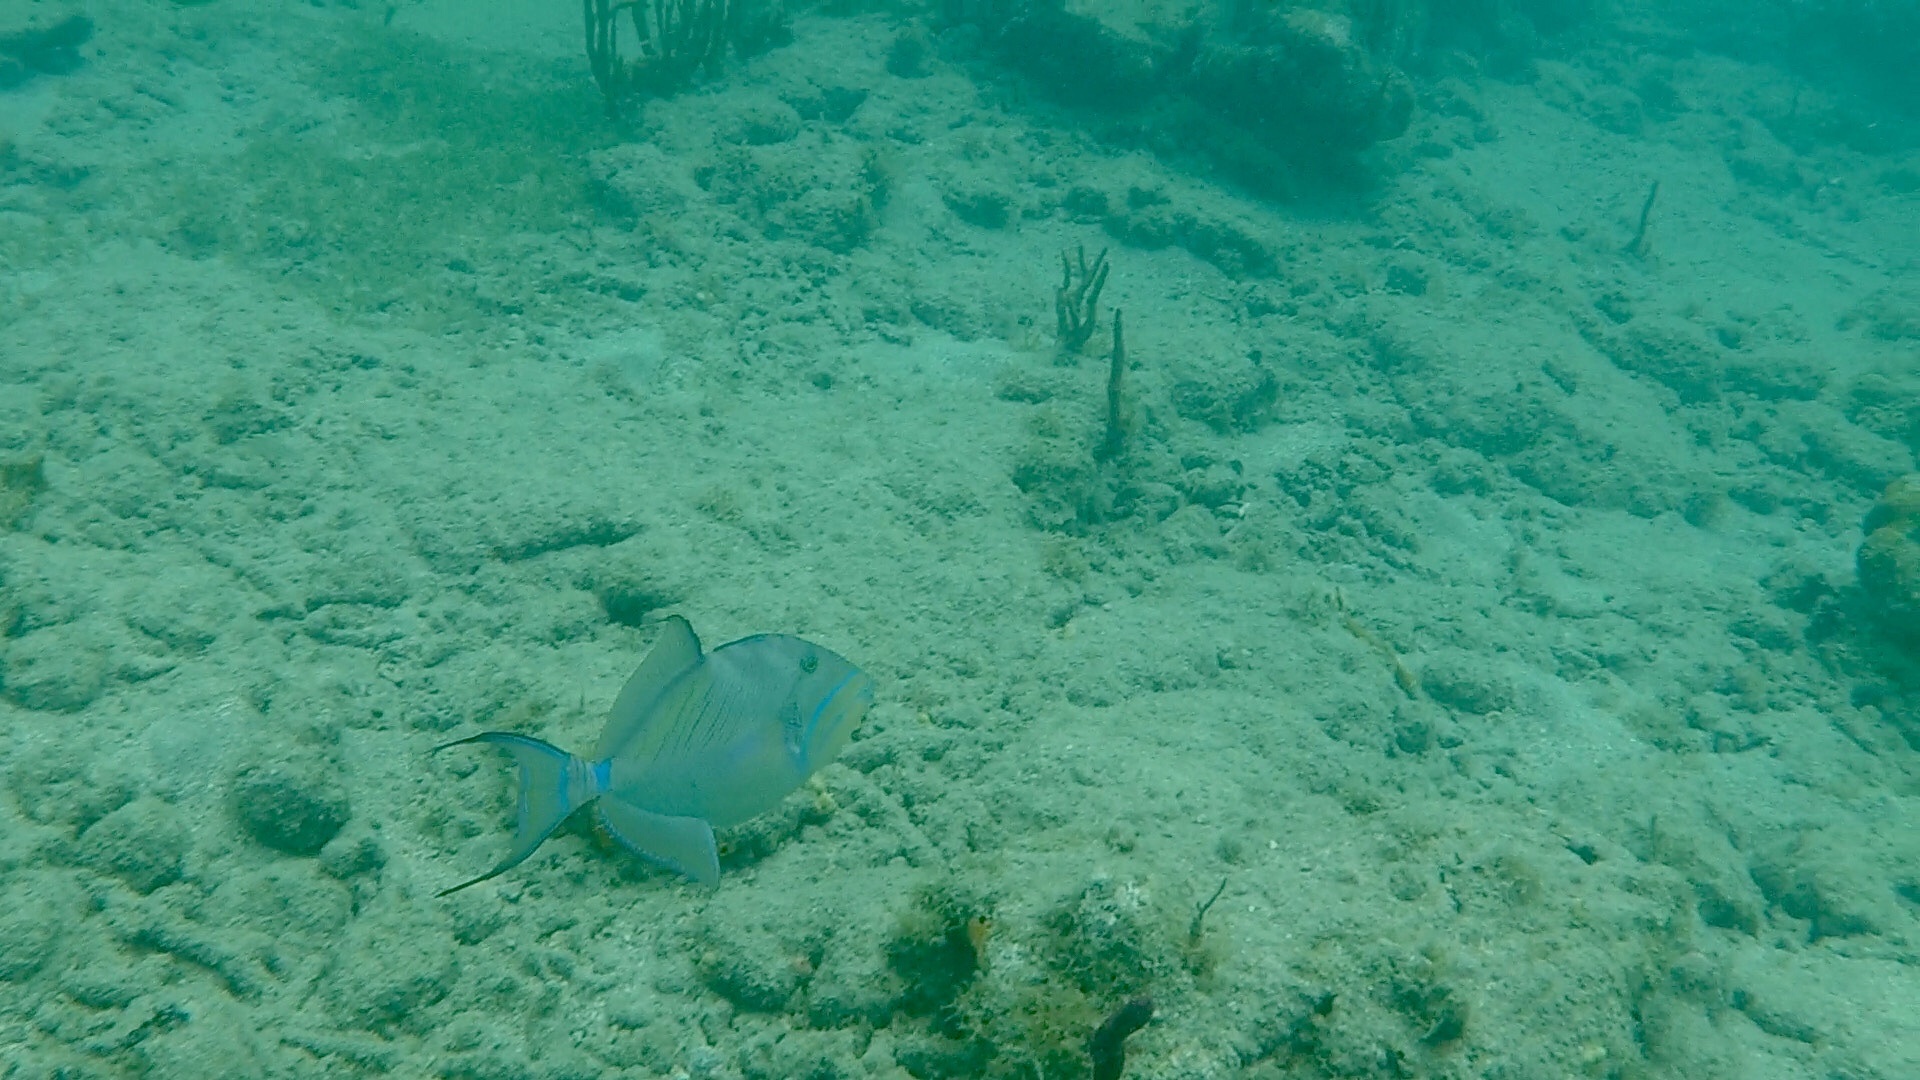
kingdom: Animalia
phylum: Chordata
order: Tetraodontiformes
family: Balistidae
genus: Balistes
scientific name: Balistes vetula
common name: Queen triggerfish
